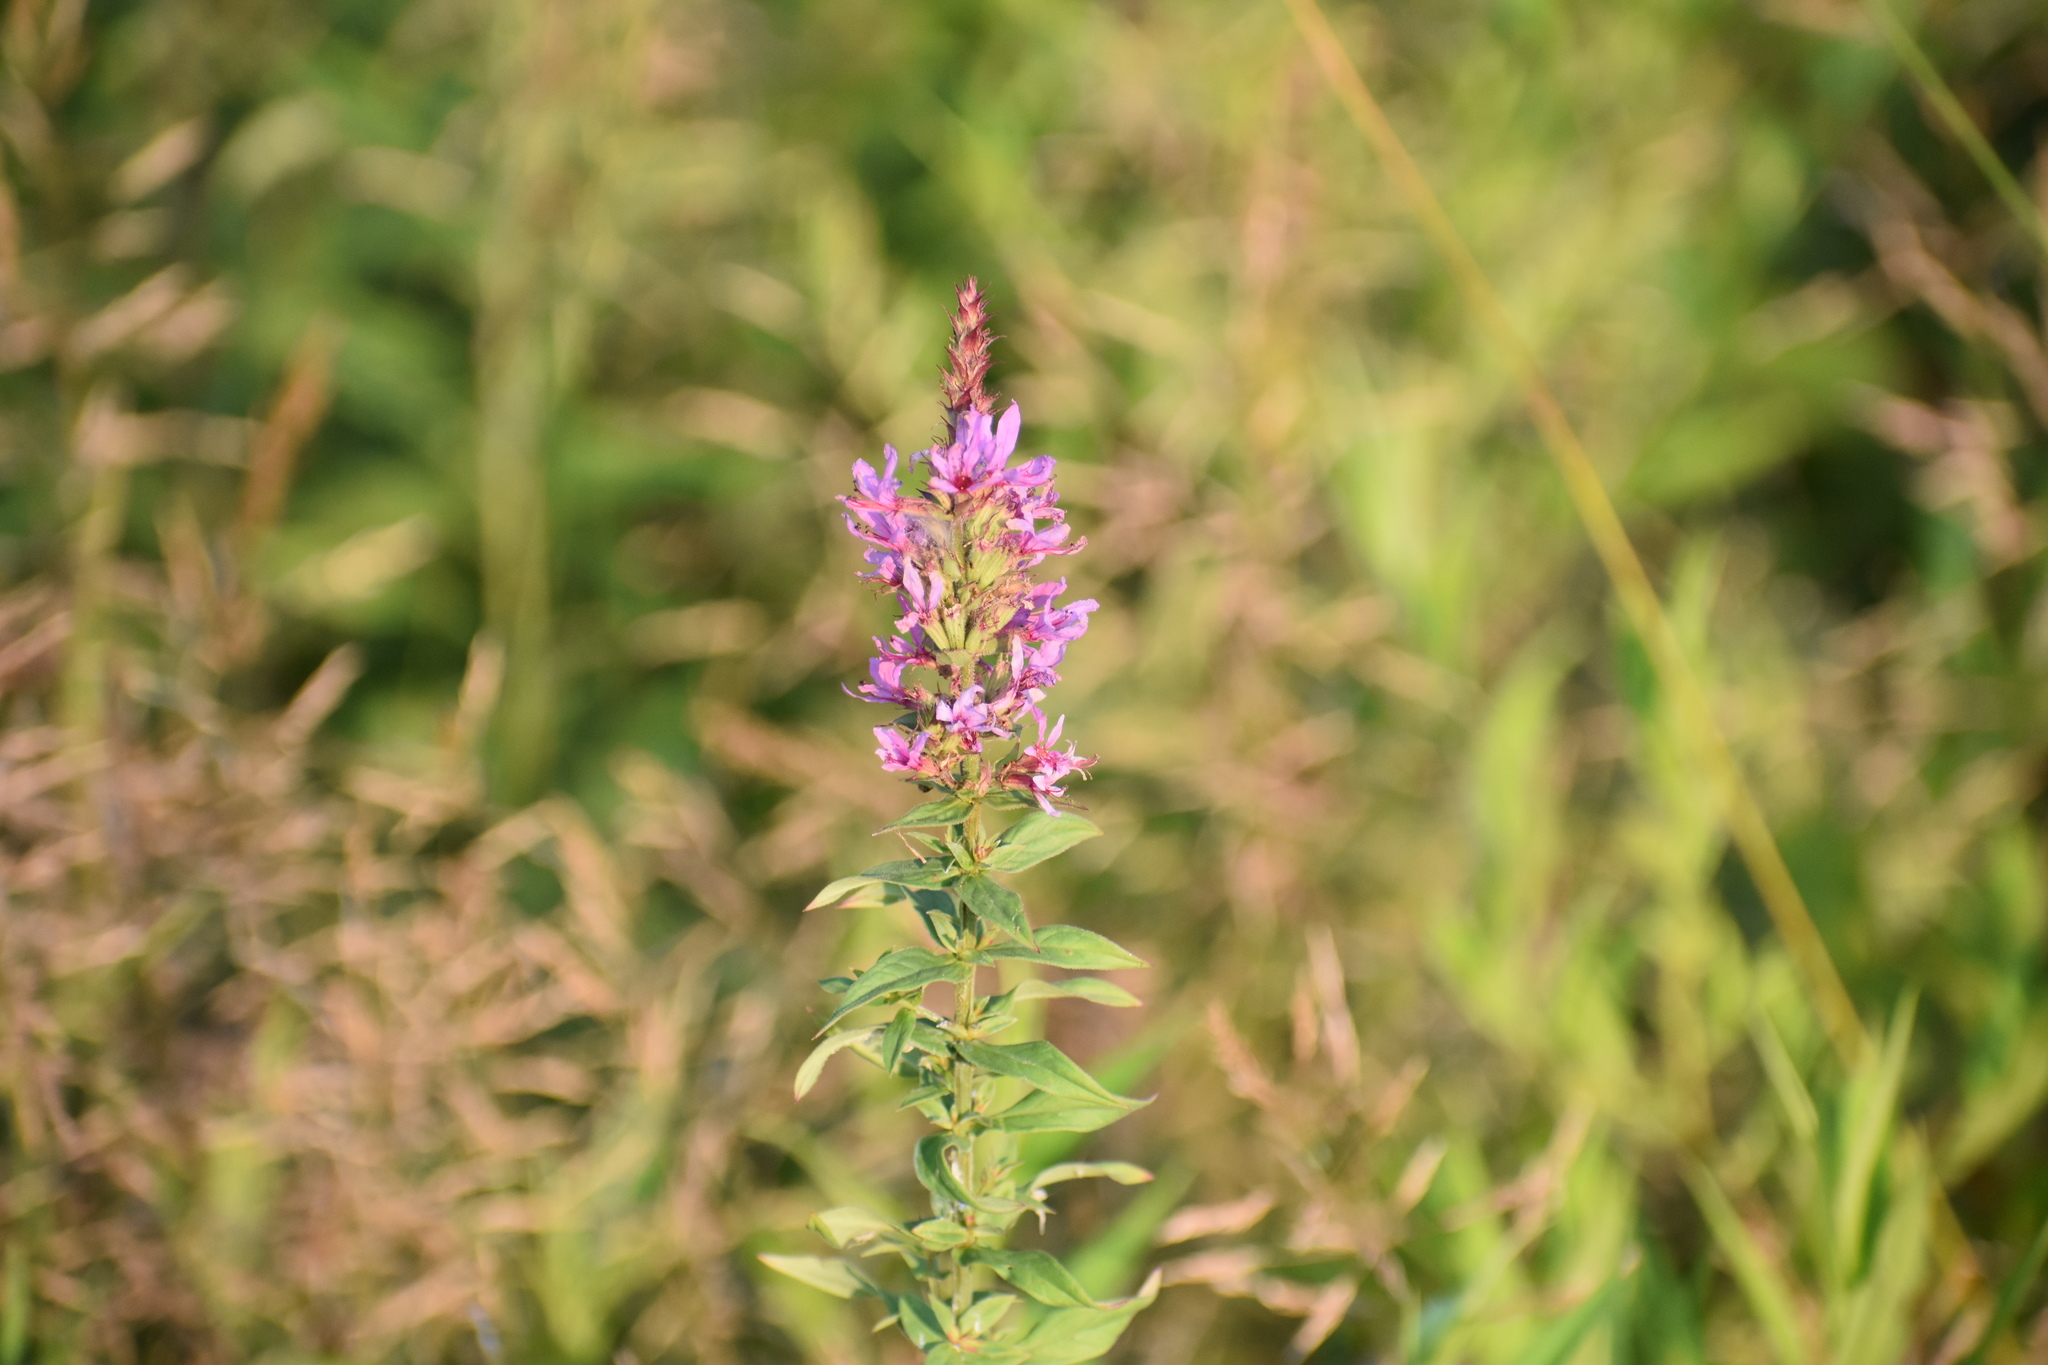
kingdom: Plantae
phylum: Tracheophyta
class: Magnoliopsida
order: Myrtales
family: Lythraceae
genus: Lythrum
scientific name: Lythrum salicaria
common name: Purple loosestrife
